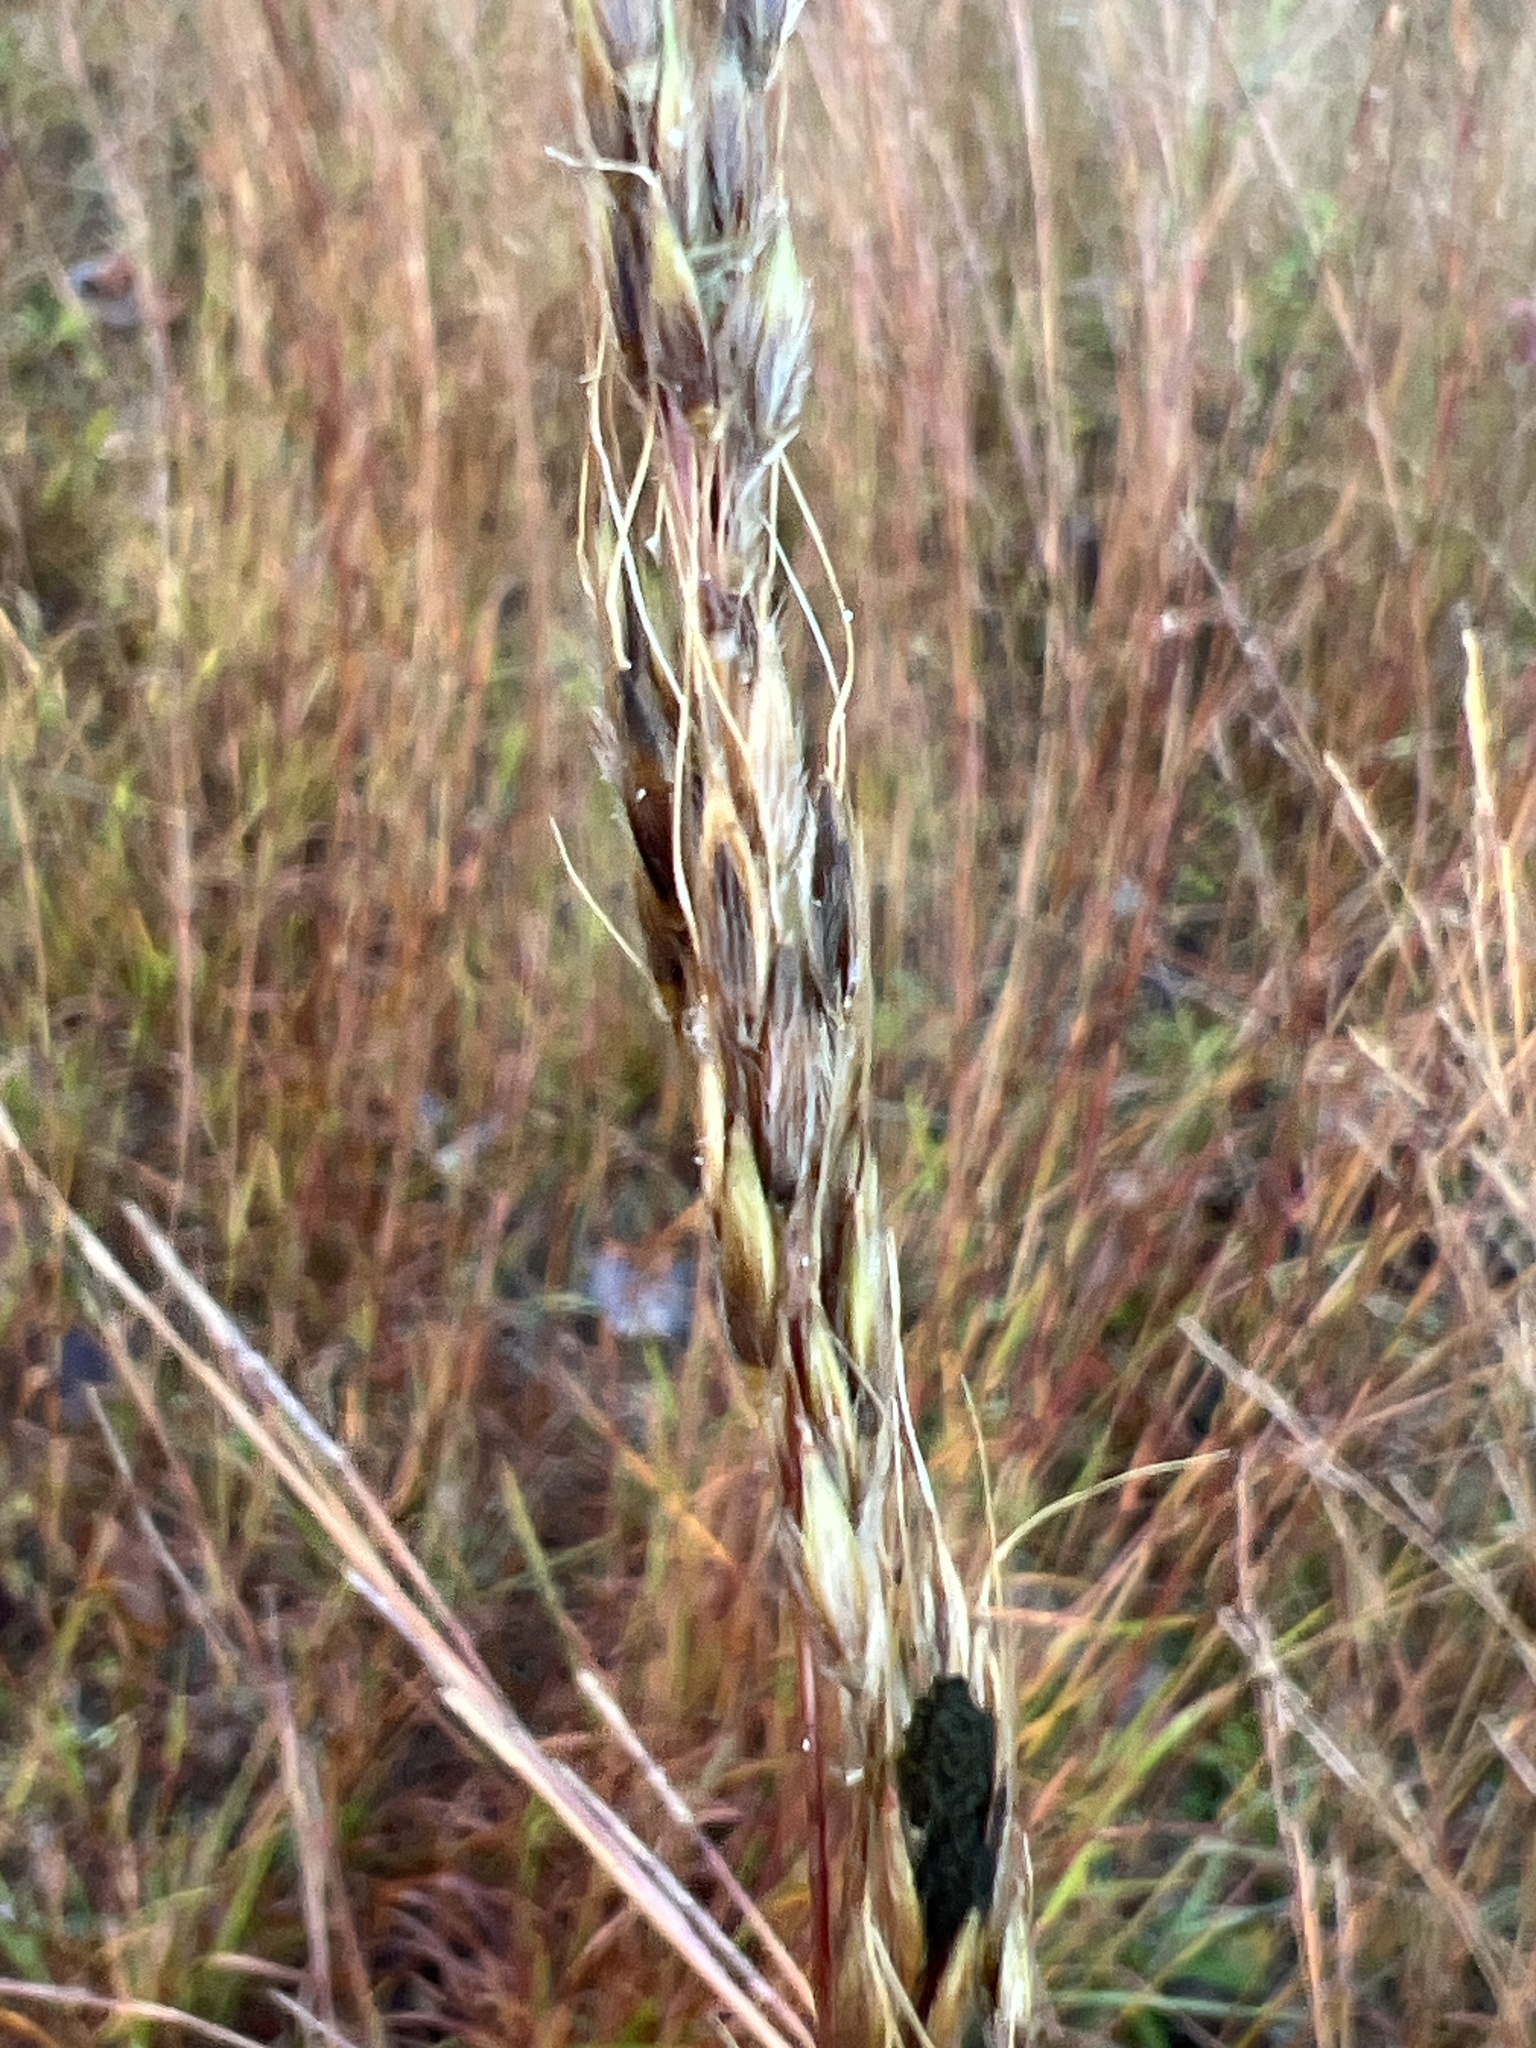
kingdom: Plantae
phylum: Tracheophyta
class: Liliopsida
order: Poales
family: Poaceae
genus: Sorghastrum
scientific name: Sorghastrum nutans
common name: Indian grass
